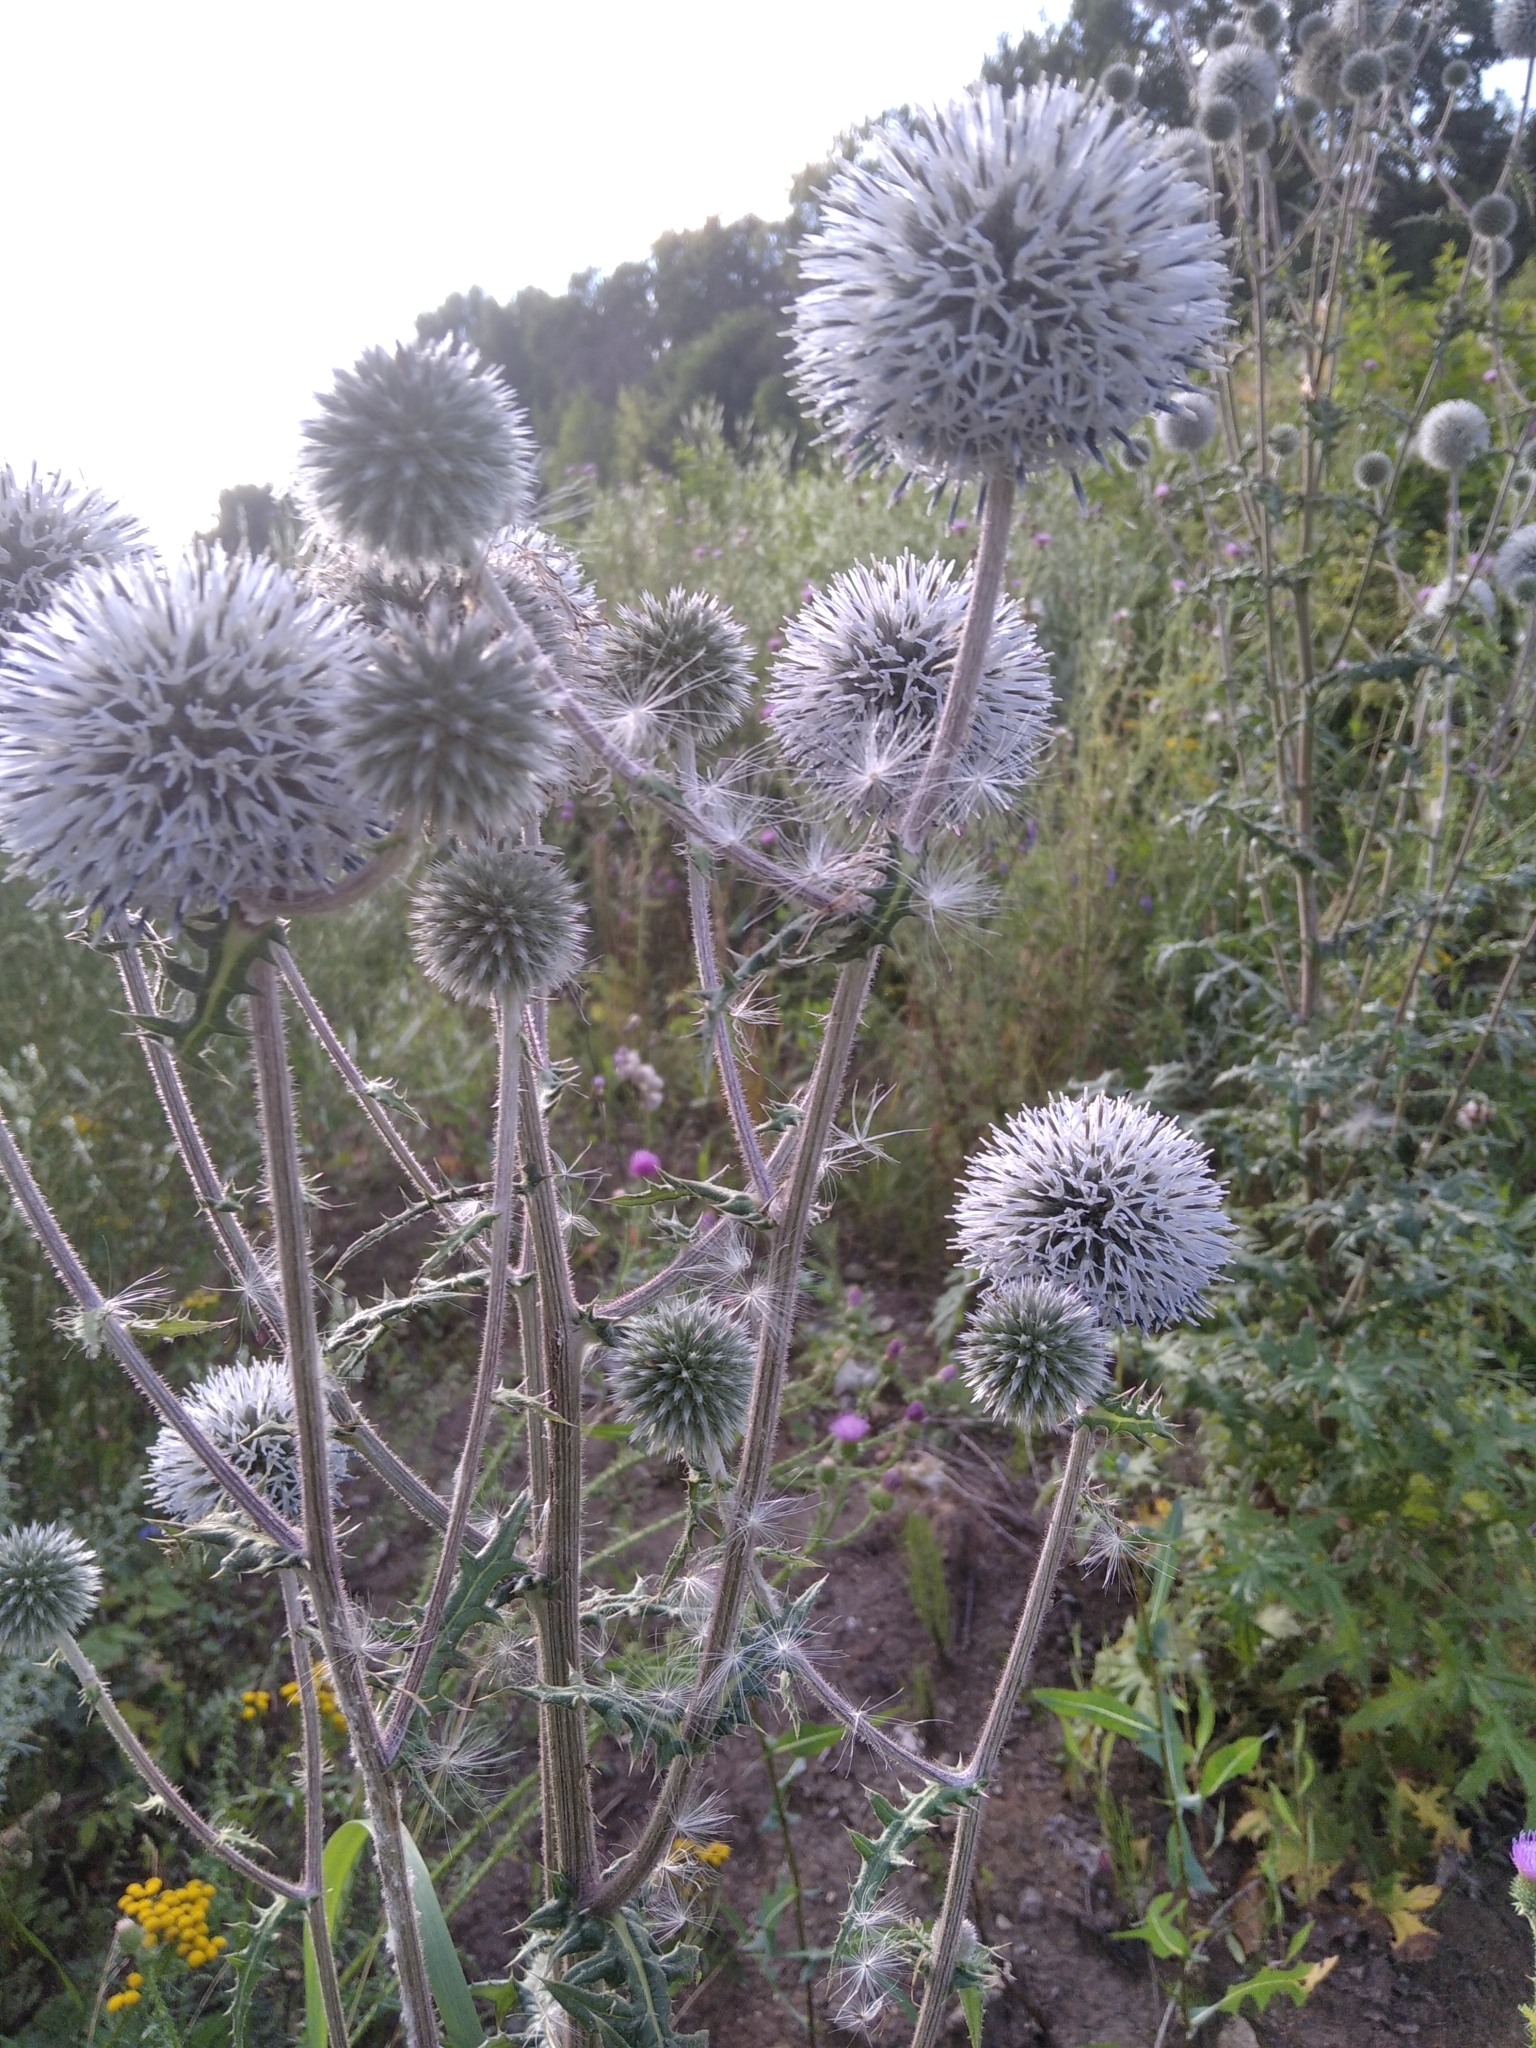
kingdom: Plantae
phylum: Tracheophyta
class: Magnoliopsida
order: Asterales
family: Asteraceae
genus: Echinops
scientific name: Echinops sphaerocephalus
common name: Glandular globe-thistle
